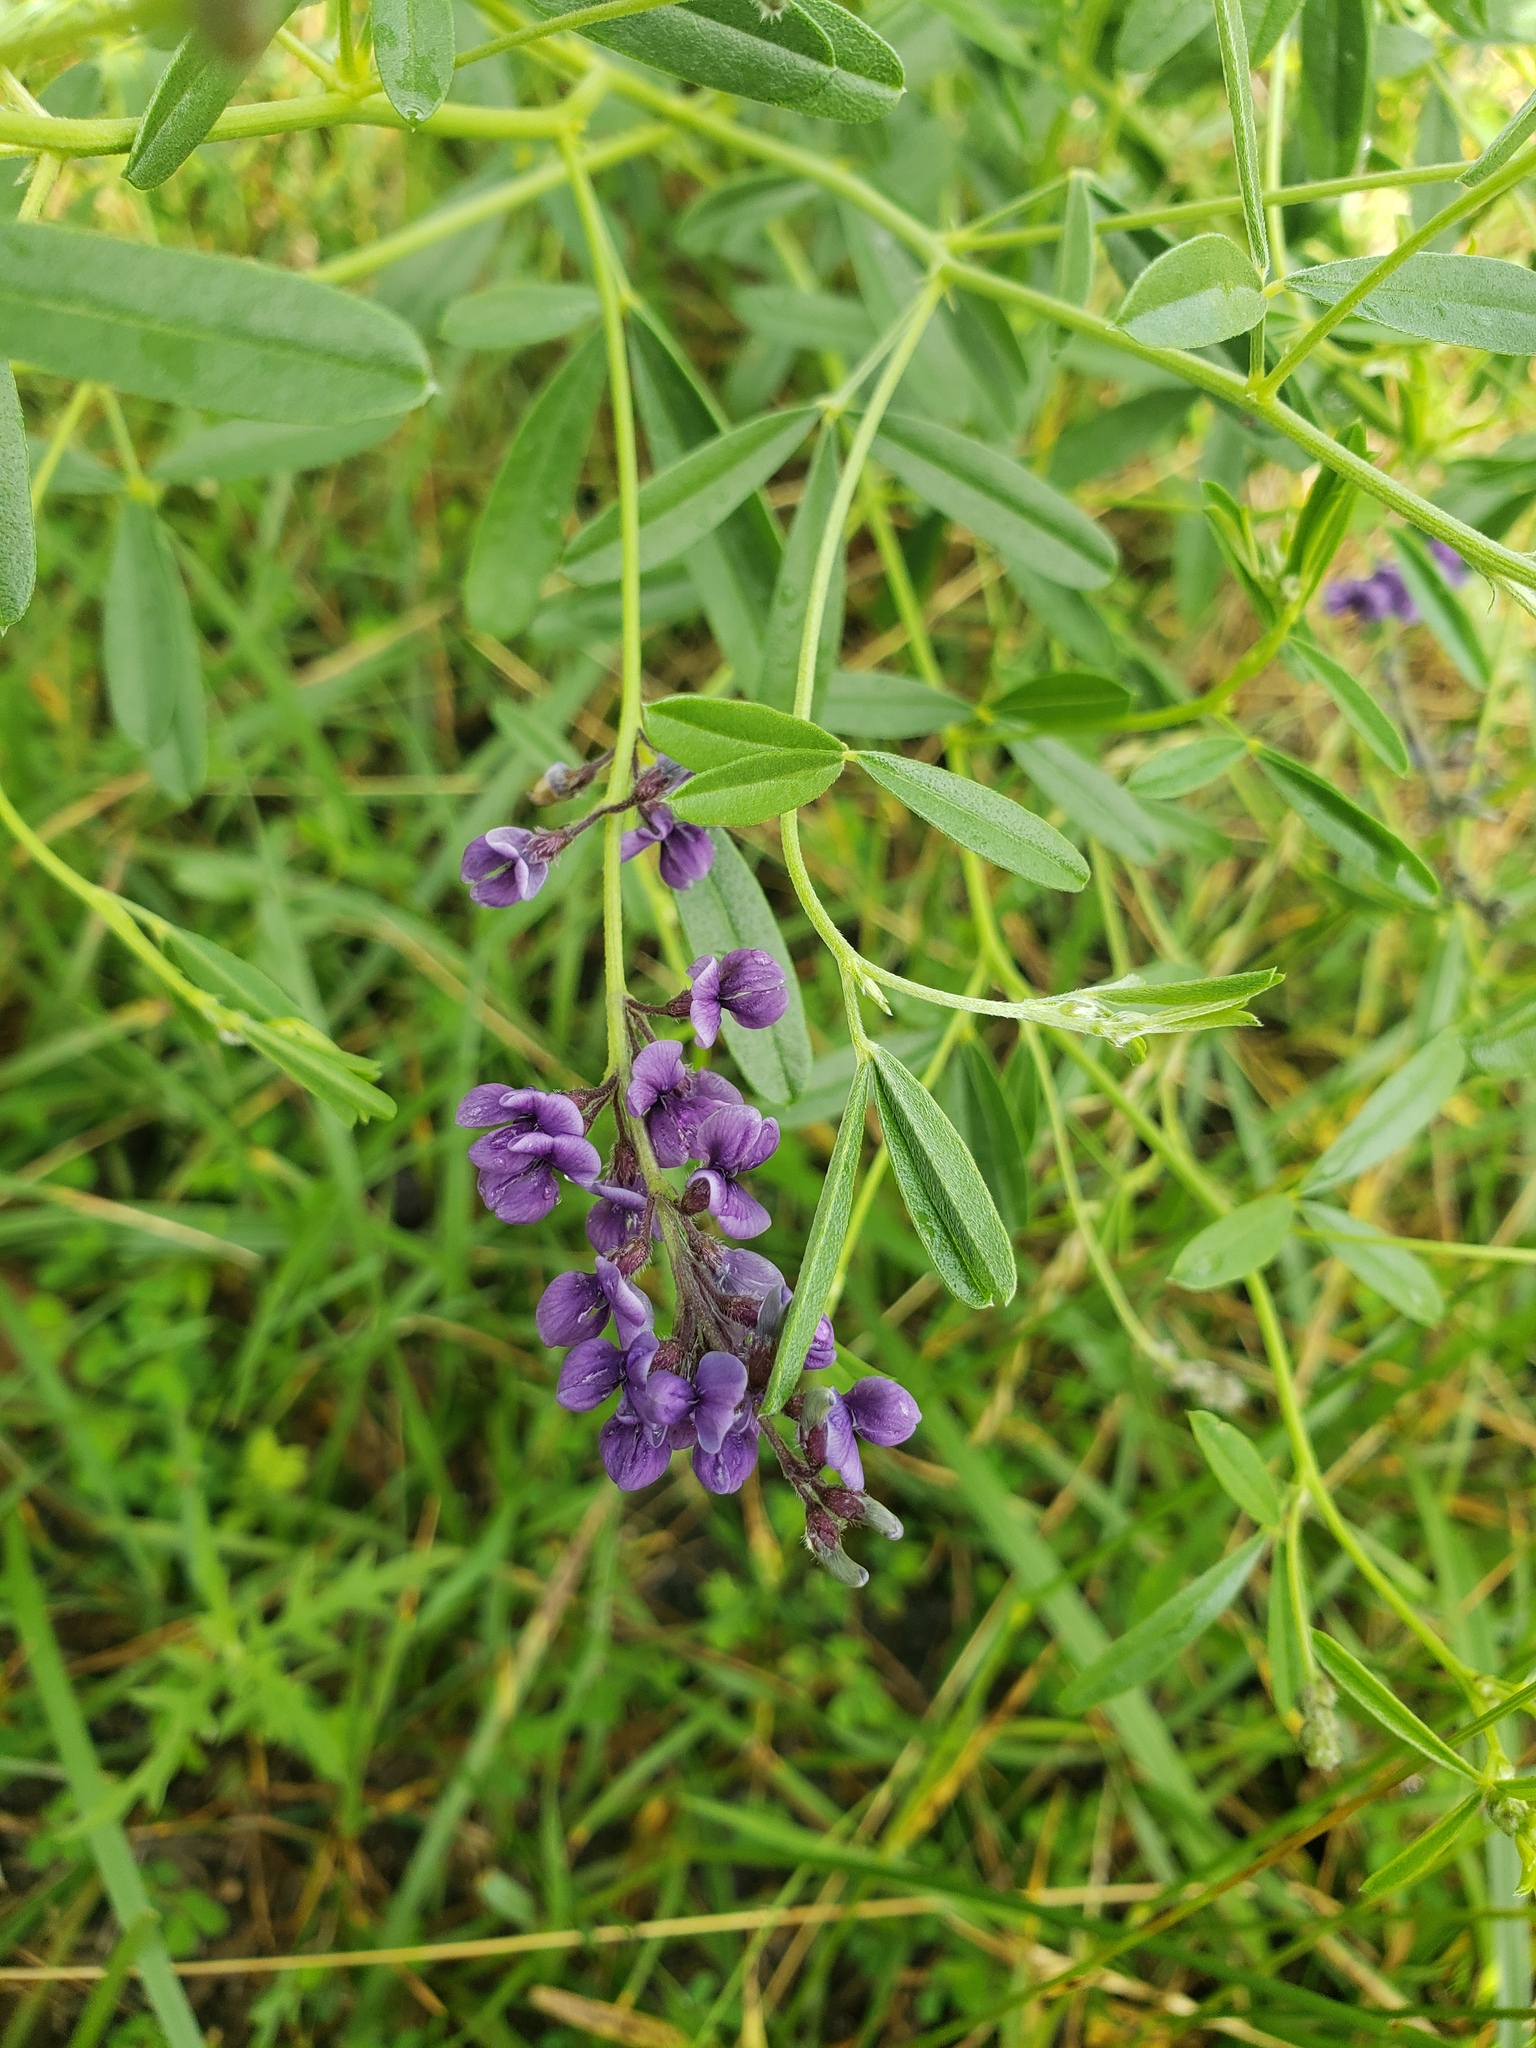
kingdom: Plantae
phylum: Tracheophyta
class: Magnoliopsida
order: Fabales
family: Fabaceae
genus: Pediomelum
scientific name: Pediomelum tenuiflorum
